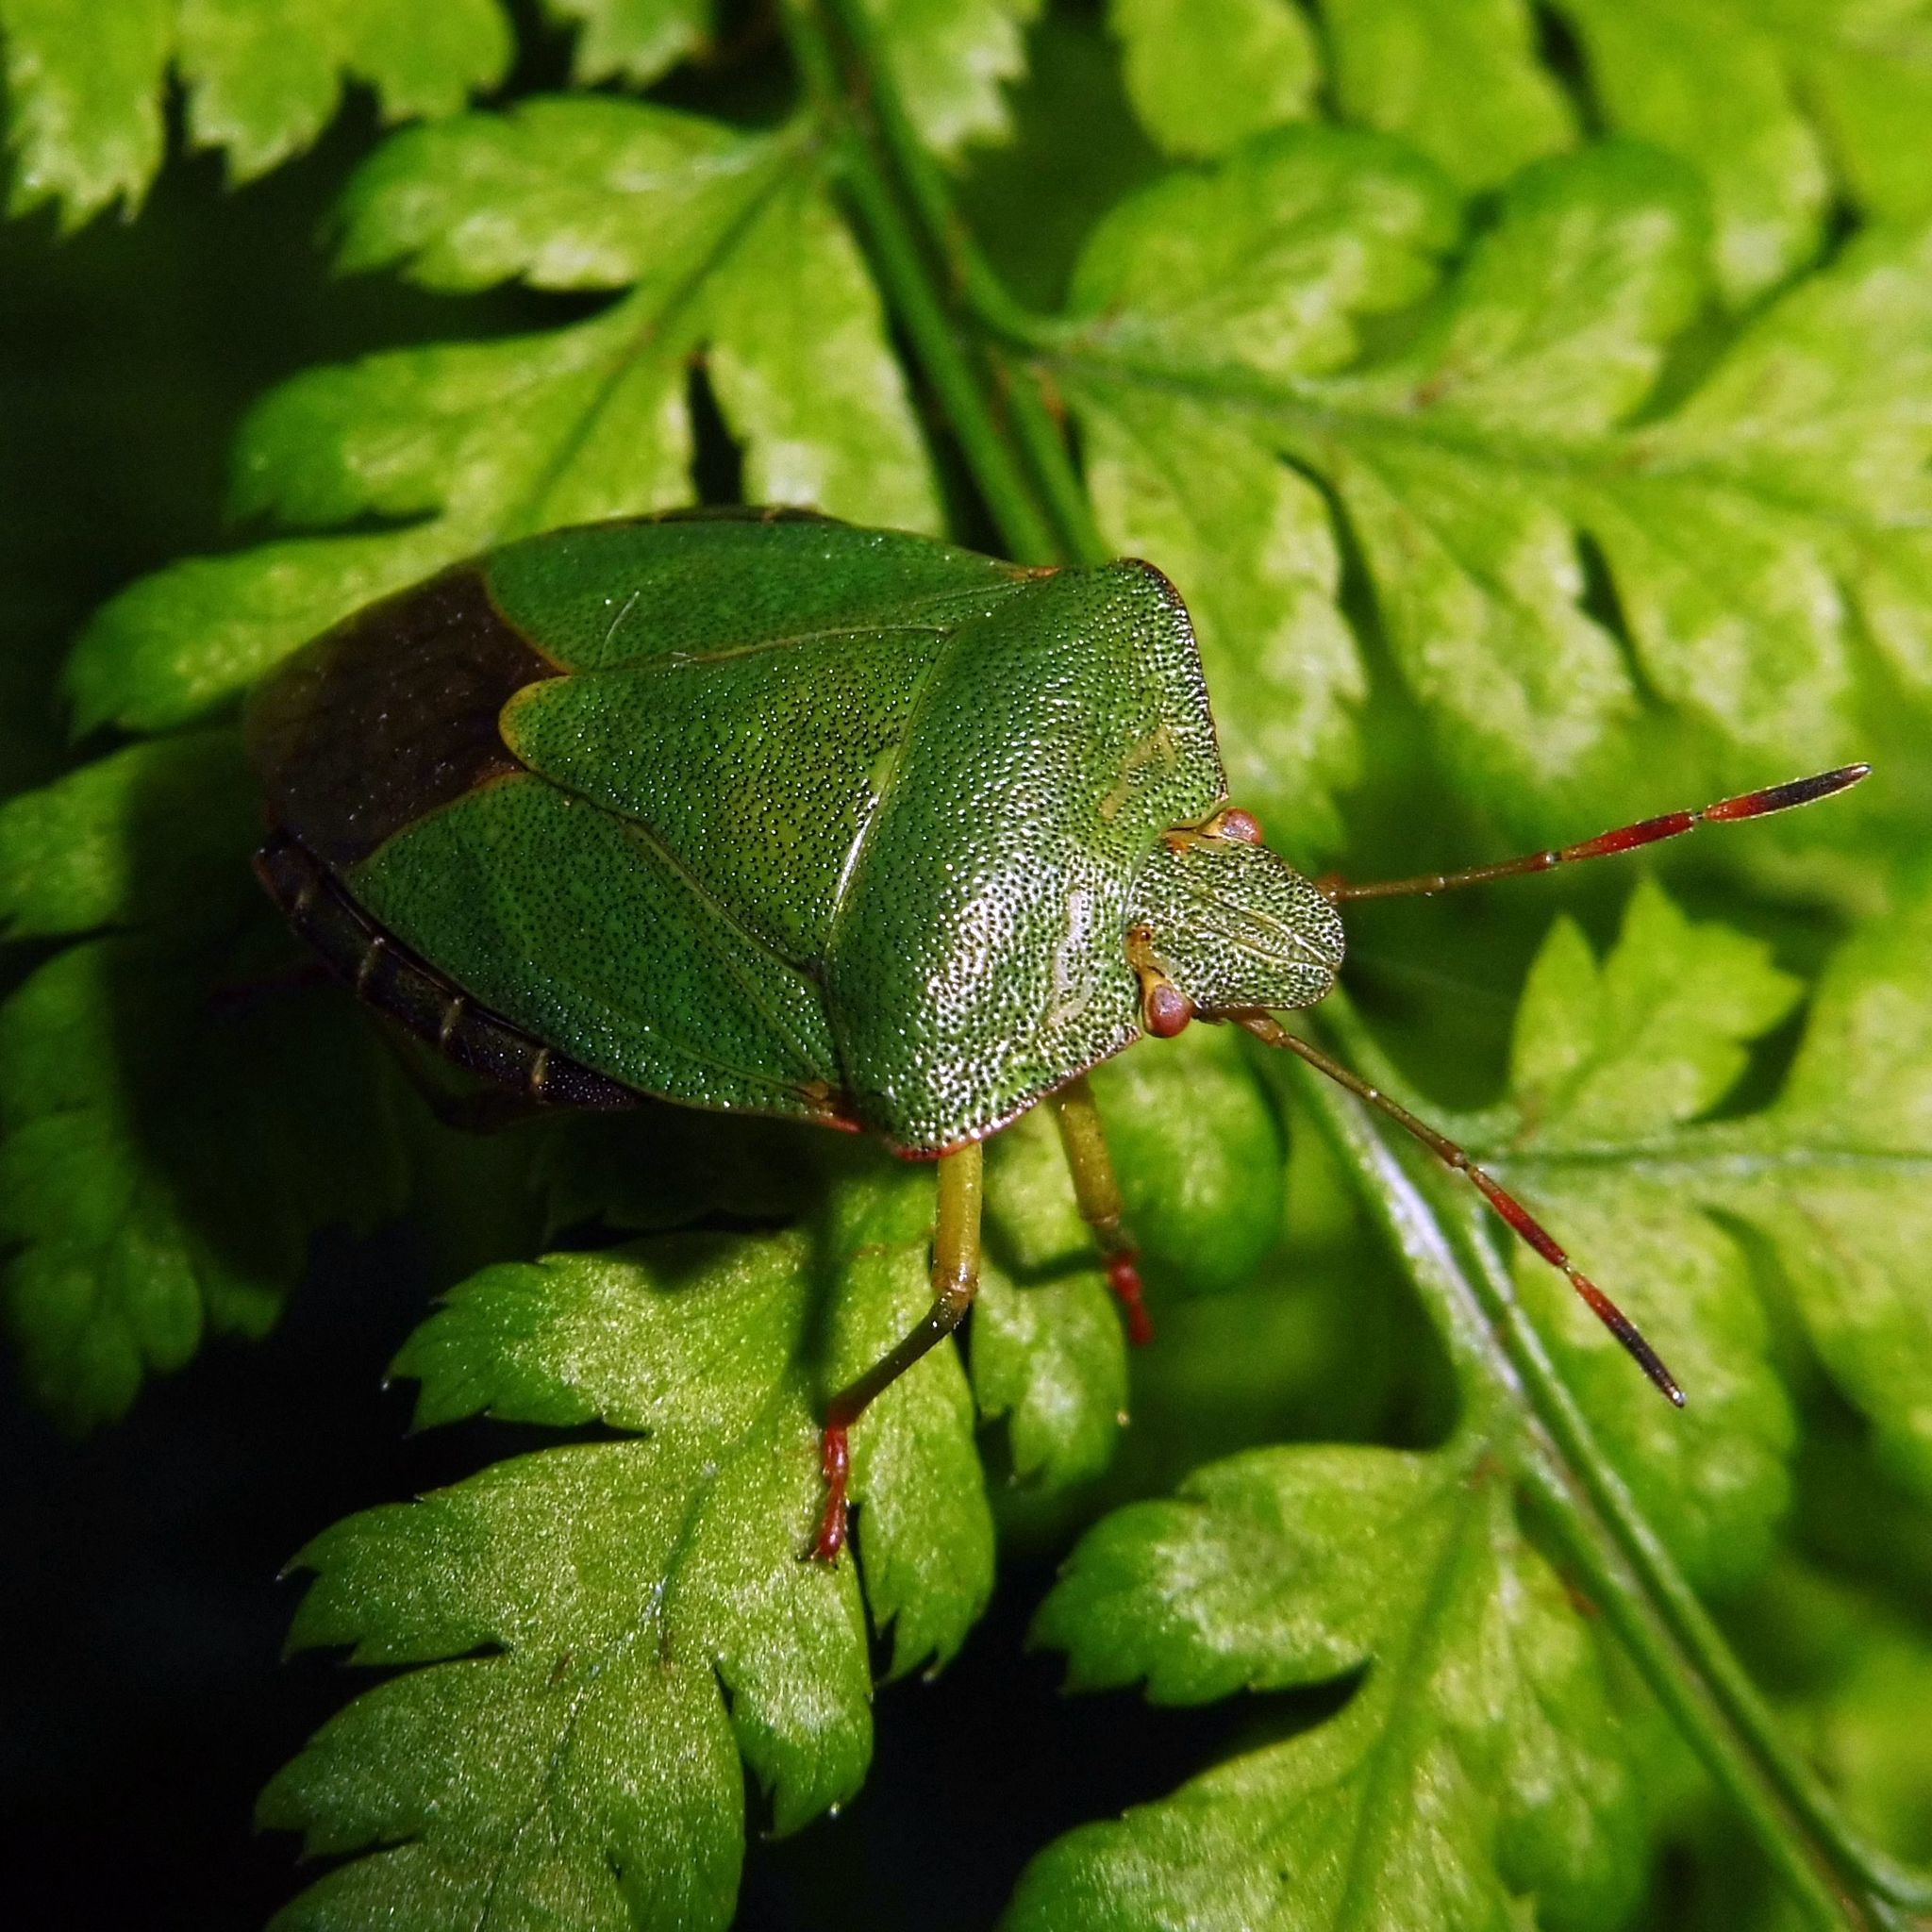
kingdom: Animalia
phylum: Arthropoda
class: Insecta
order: Hemiptera
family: Pentatomidae
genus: Palomena
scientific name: Palomena prasina
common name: Green shieldbug
